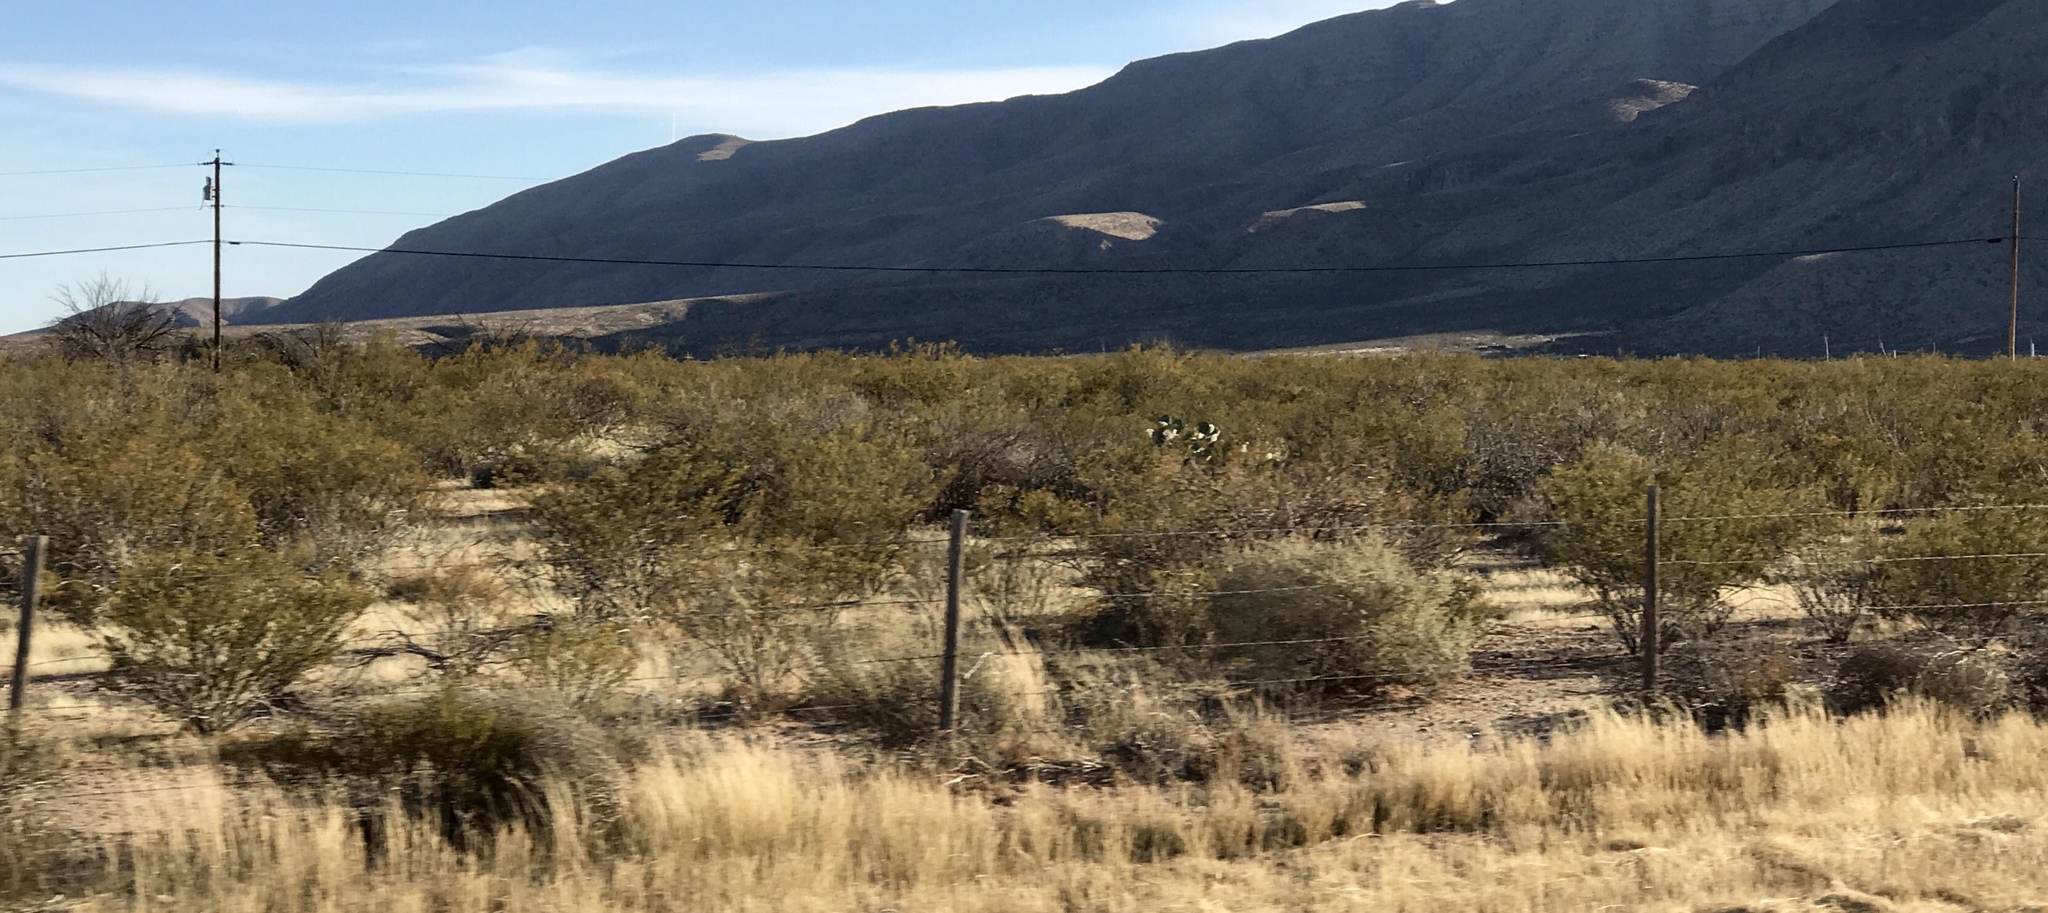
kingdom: Plantae
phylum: Tracheophyta
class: Magnoliopsida
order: Zygophyllales
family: Zygophyllaceae
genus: Larrea
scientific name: Larrea tridentata
